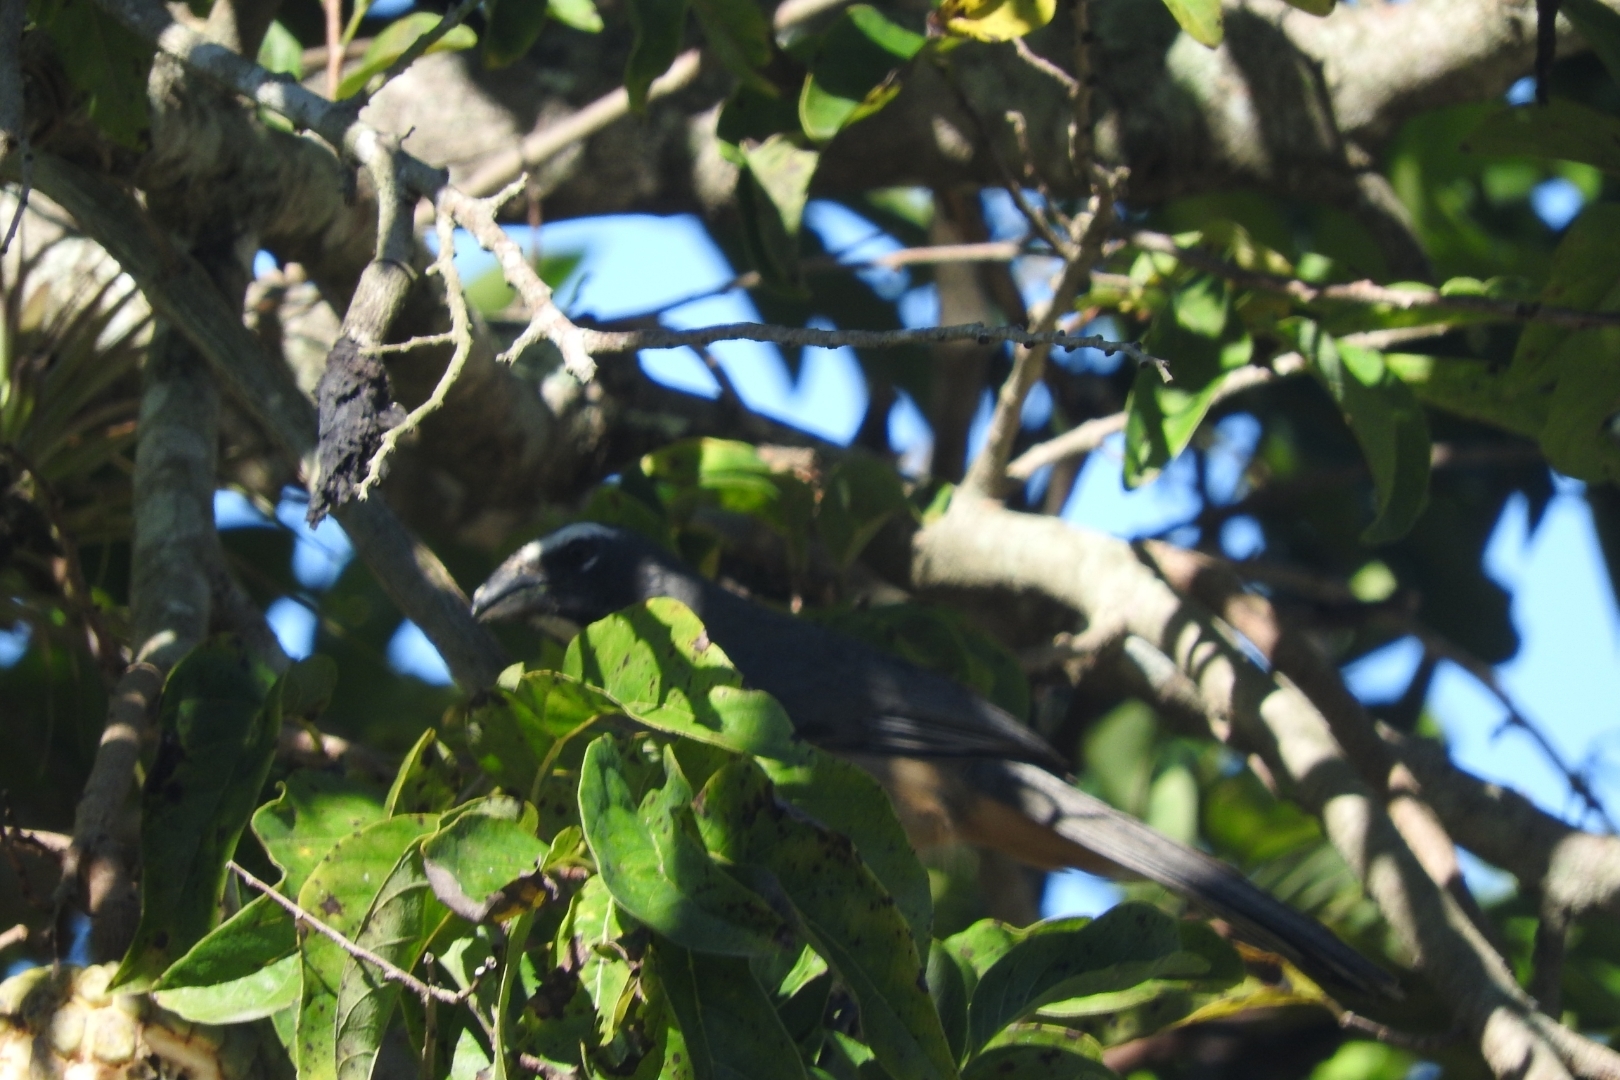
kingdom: Animalia
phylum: Chordata
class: Aves
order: Passeriformes
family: Thraupidae
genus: Saltator
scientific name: Saltator grandis
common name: Cinnamon-bellied saltator
